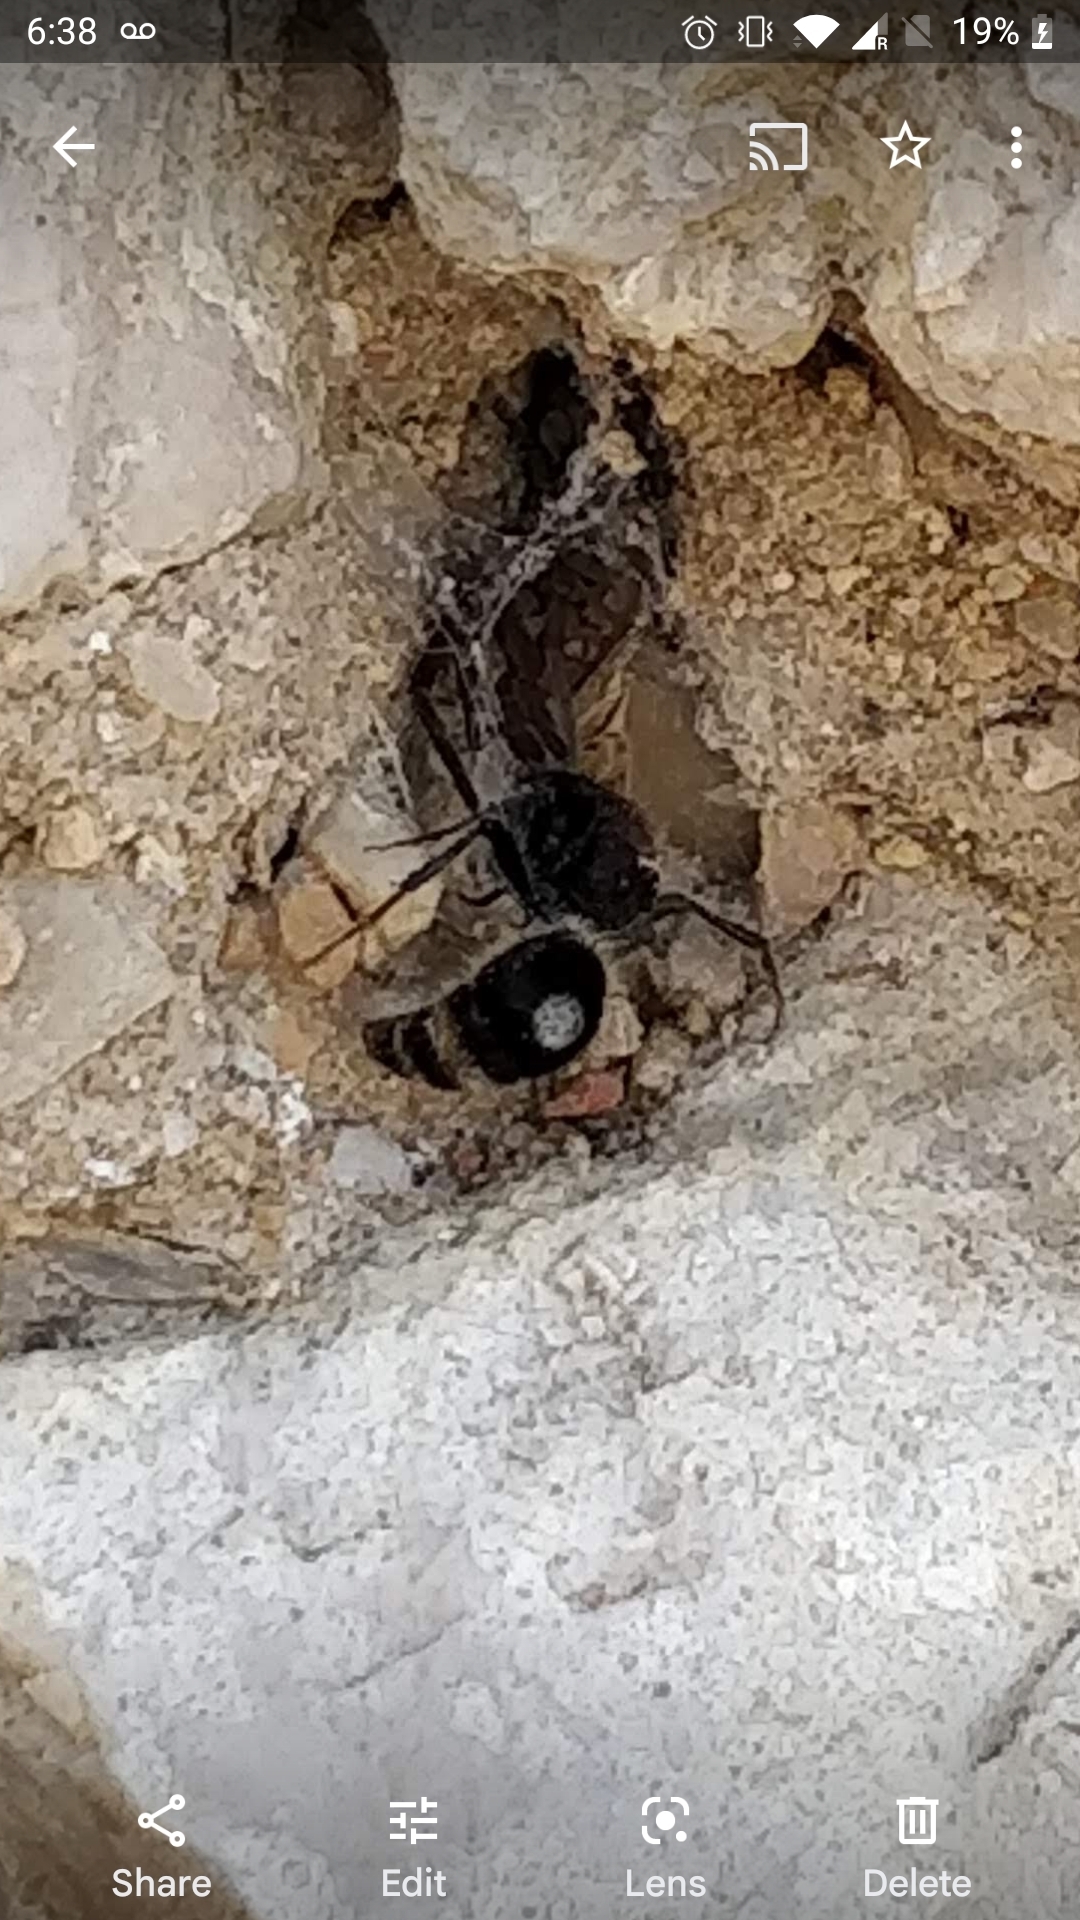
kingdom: Animalia
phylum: Arthropoda
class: Insecta
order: Hymenoptera
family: Mutillidae
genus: Sigilla
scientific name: Sigilla dorsata
